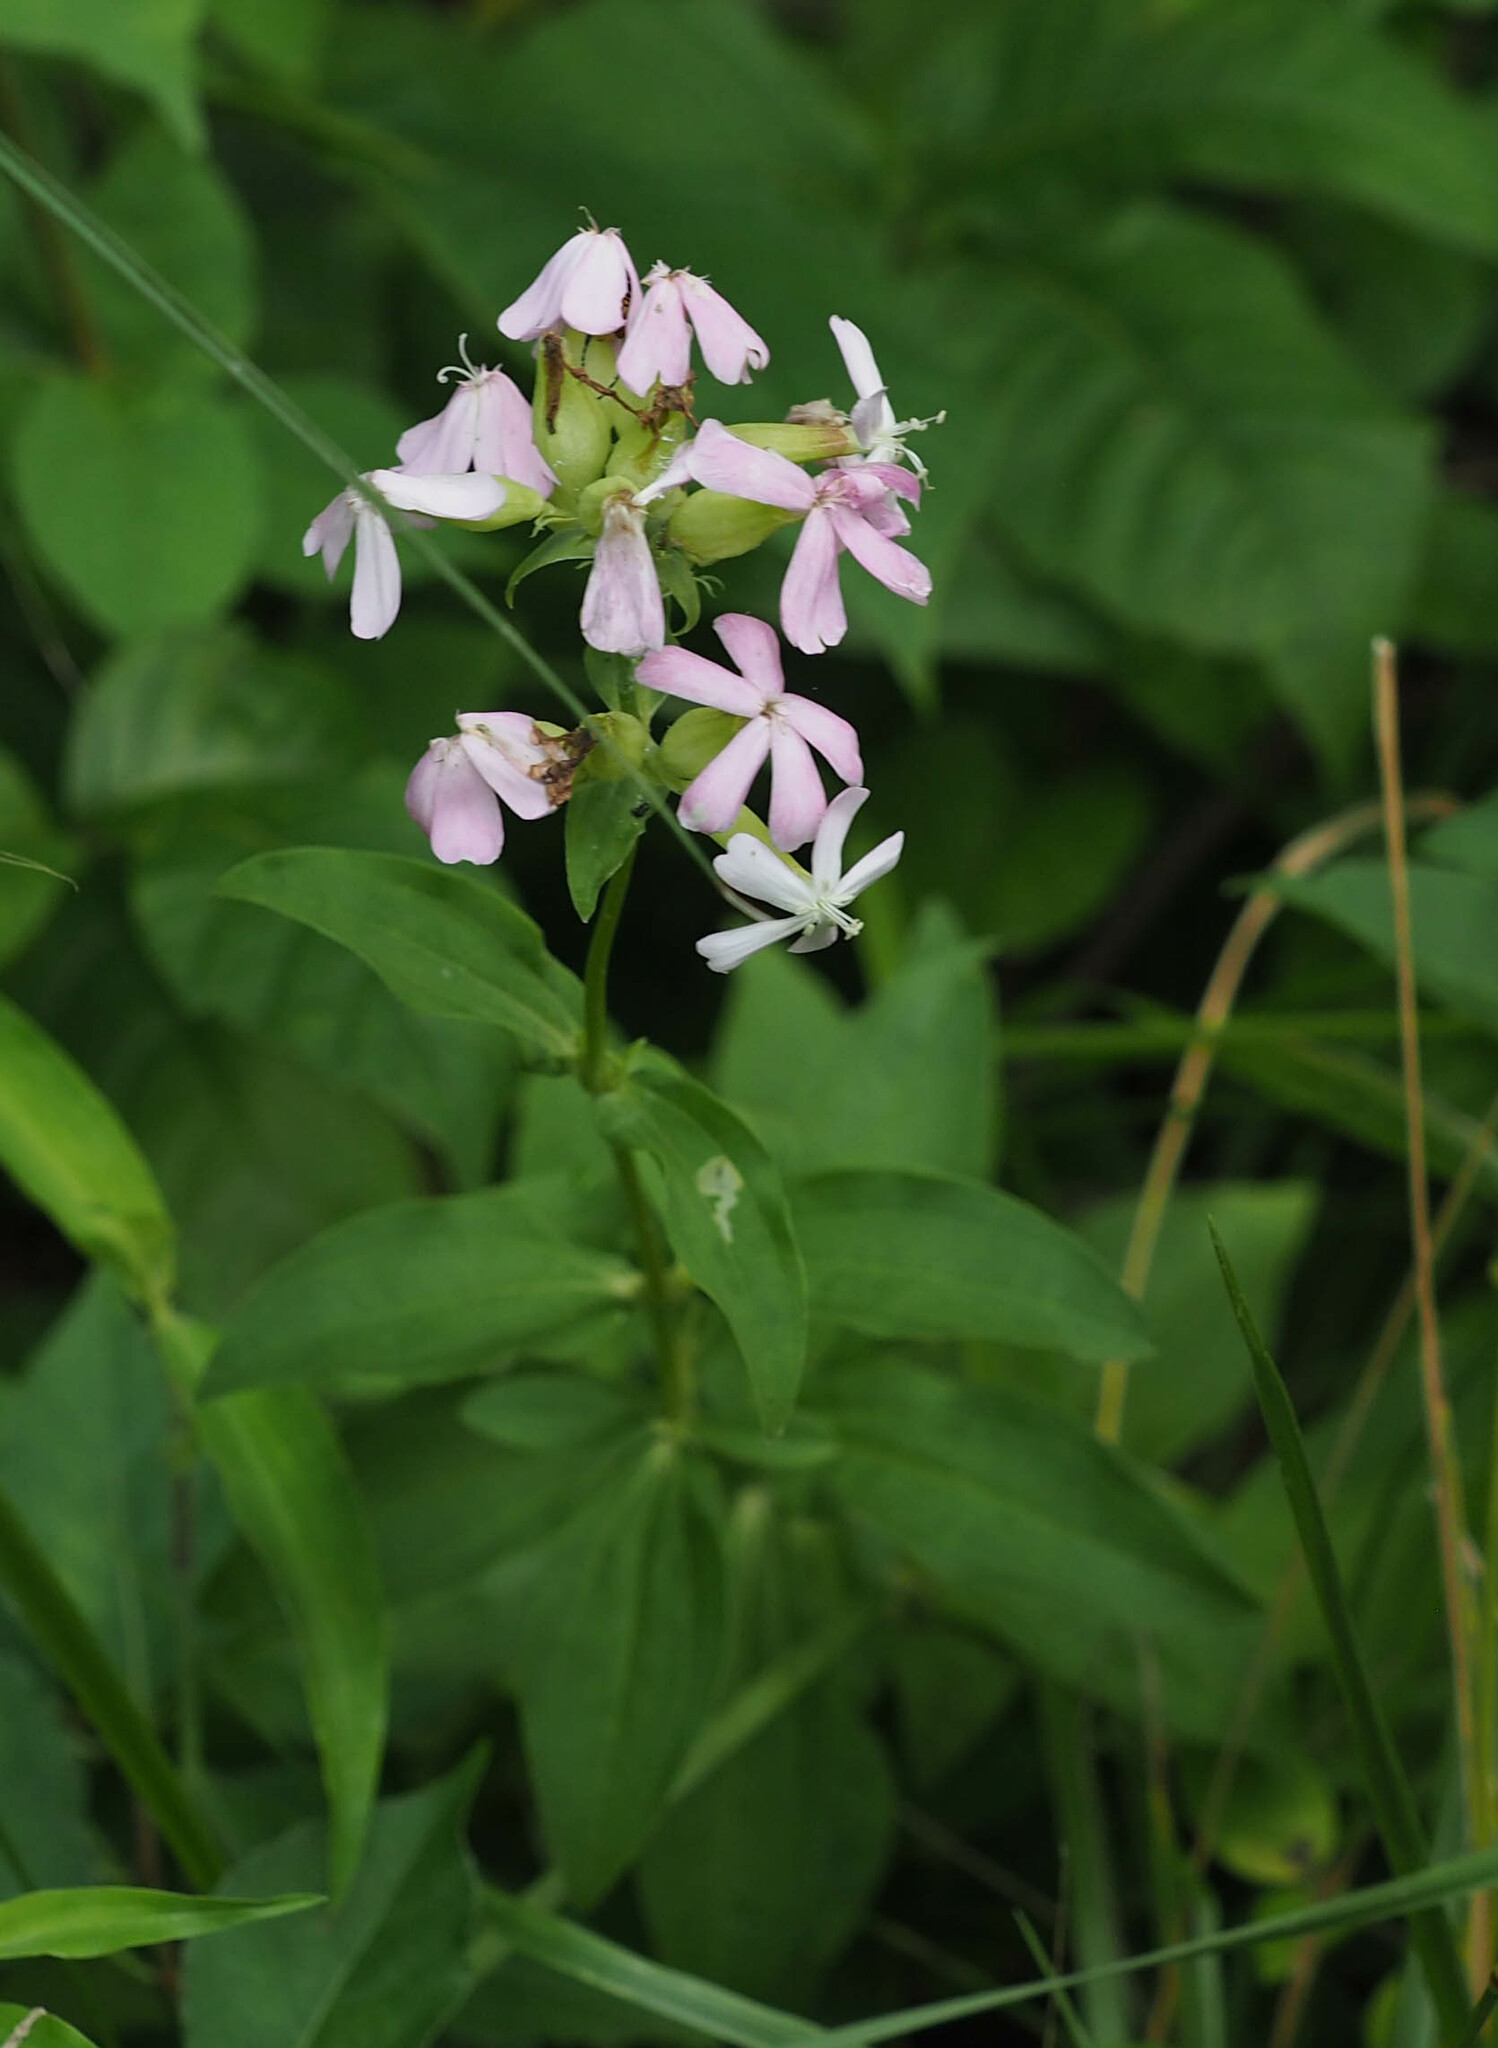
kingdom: Plantae
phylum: Tracheophyta
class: Magnoliopsida
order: Caryophyllales
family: Caryophyllaceae
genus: Saponaria
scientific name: Saponaria officinalis
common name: Soapwort
